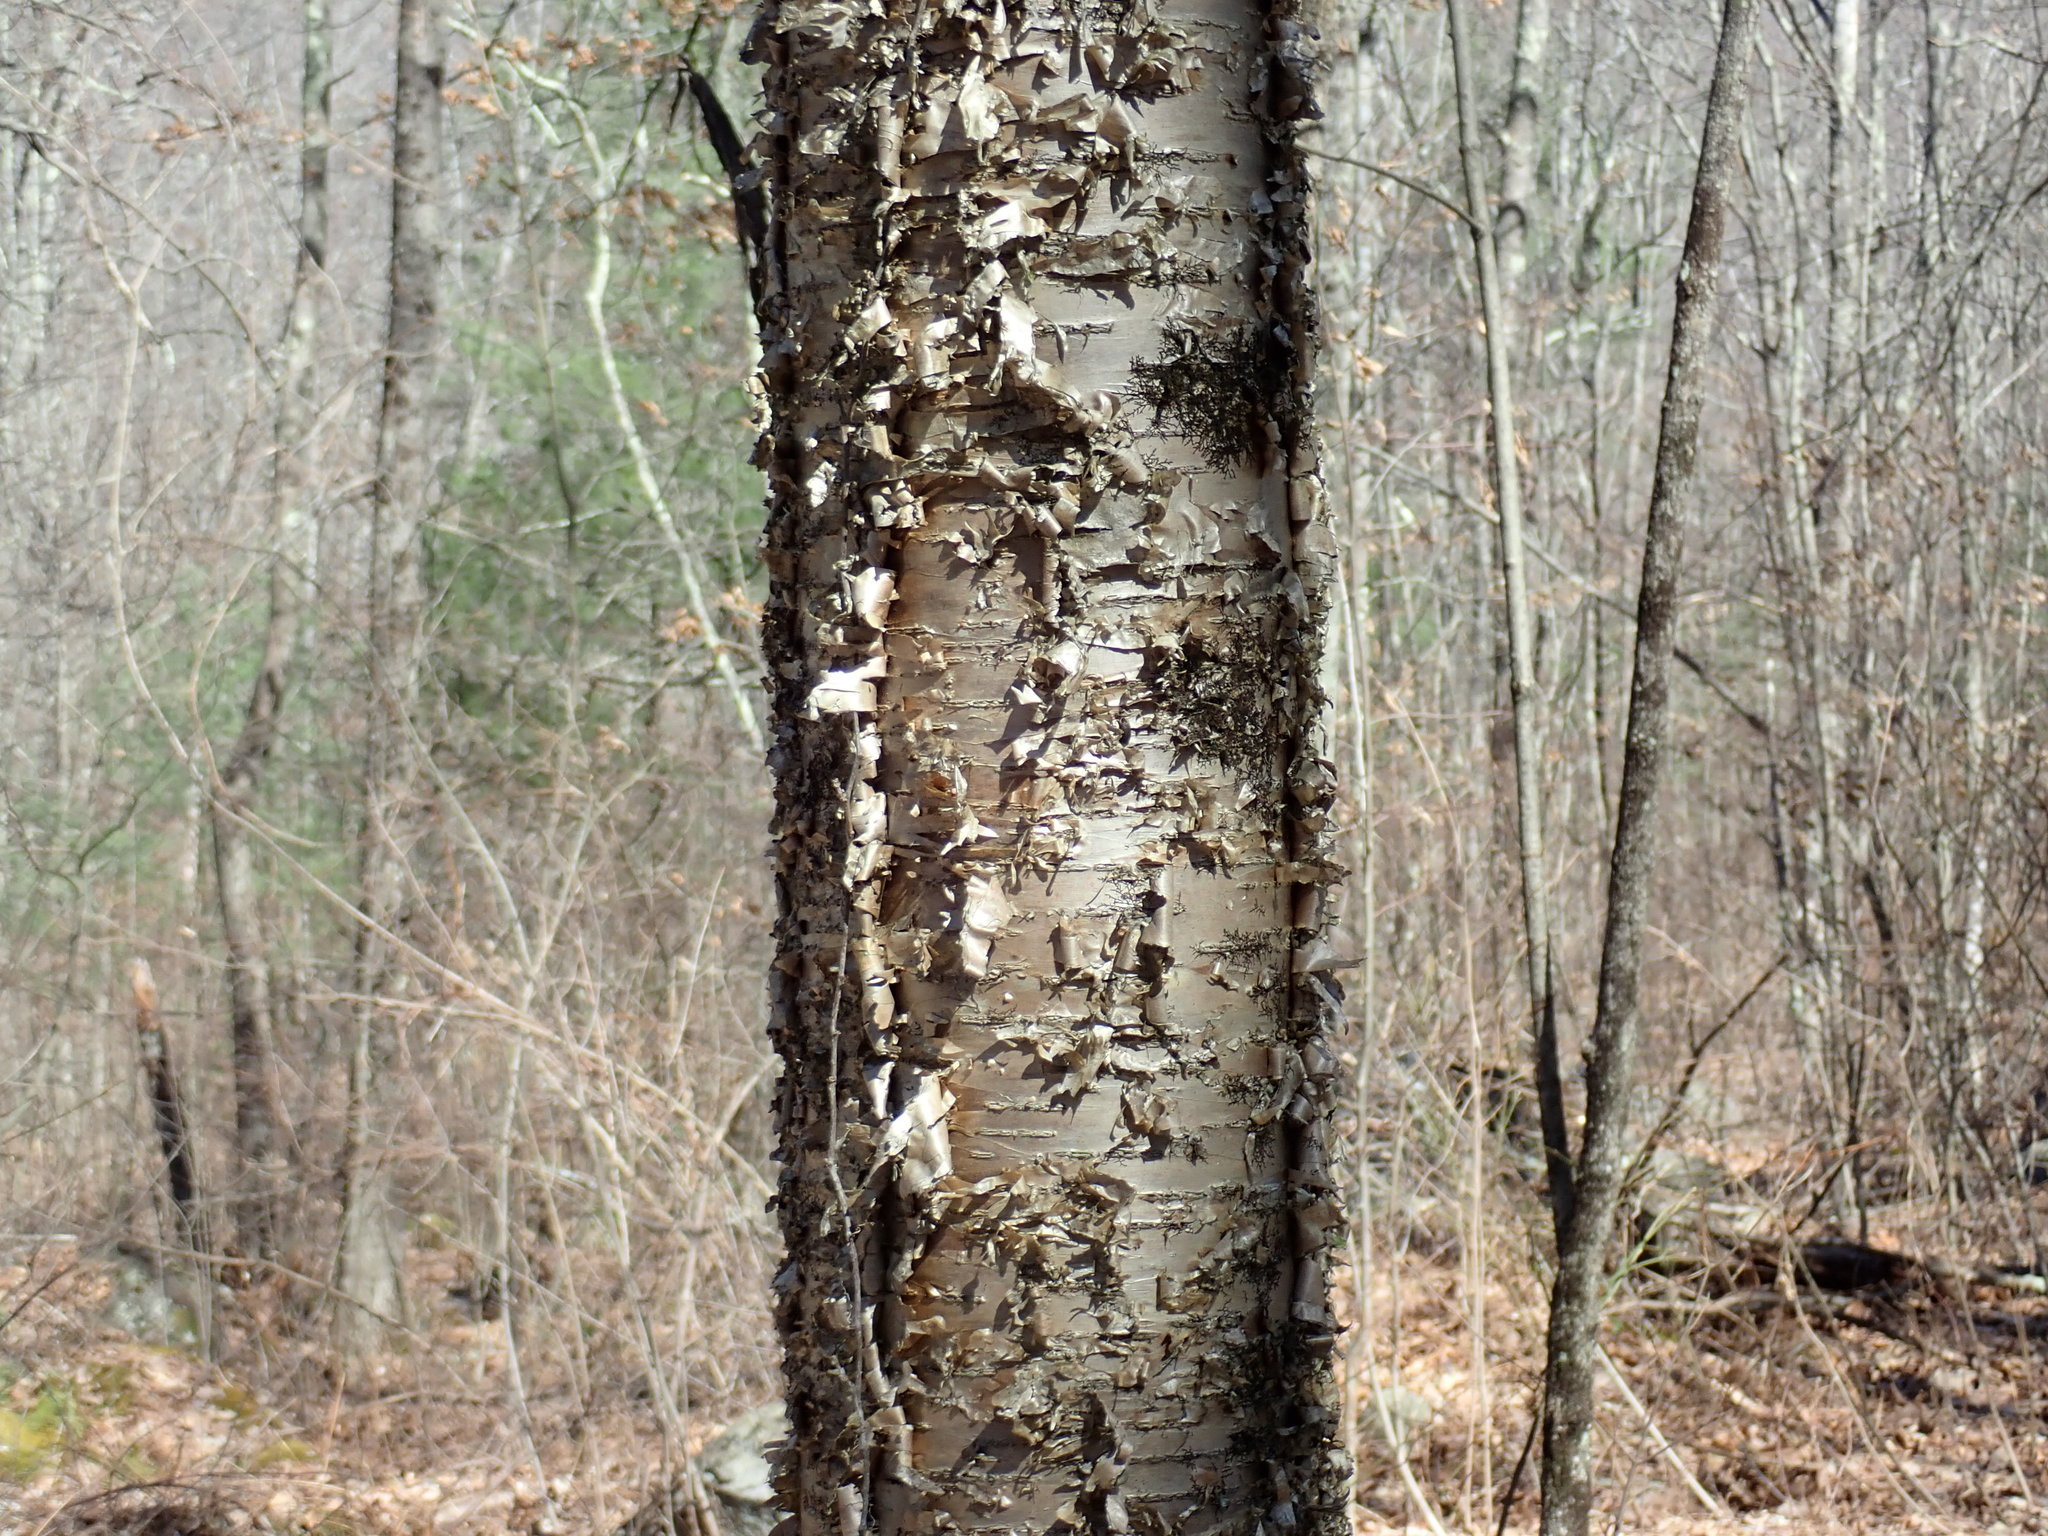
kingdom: Plantae
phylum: Tracheophyta
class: Magnoliopsida
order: Fagales
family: Betulaceae
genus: Betula
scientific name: Betula alleghaniensis
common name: Yellow birch
